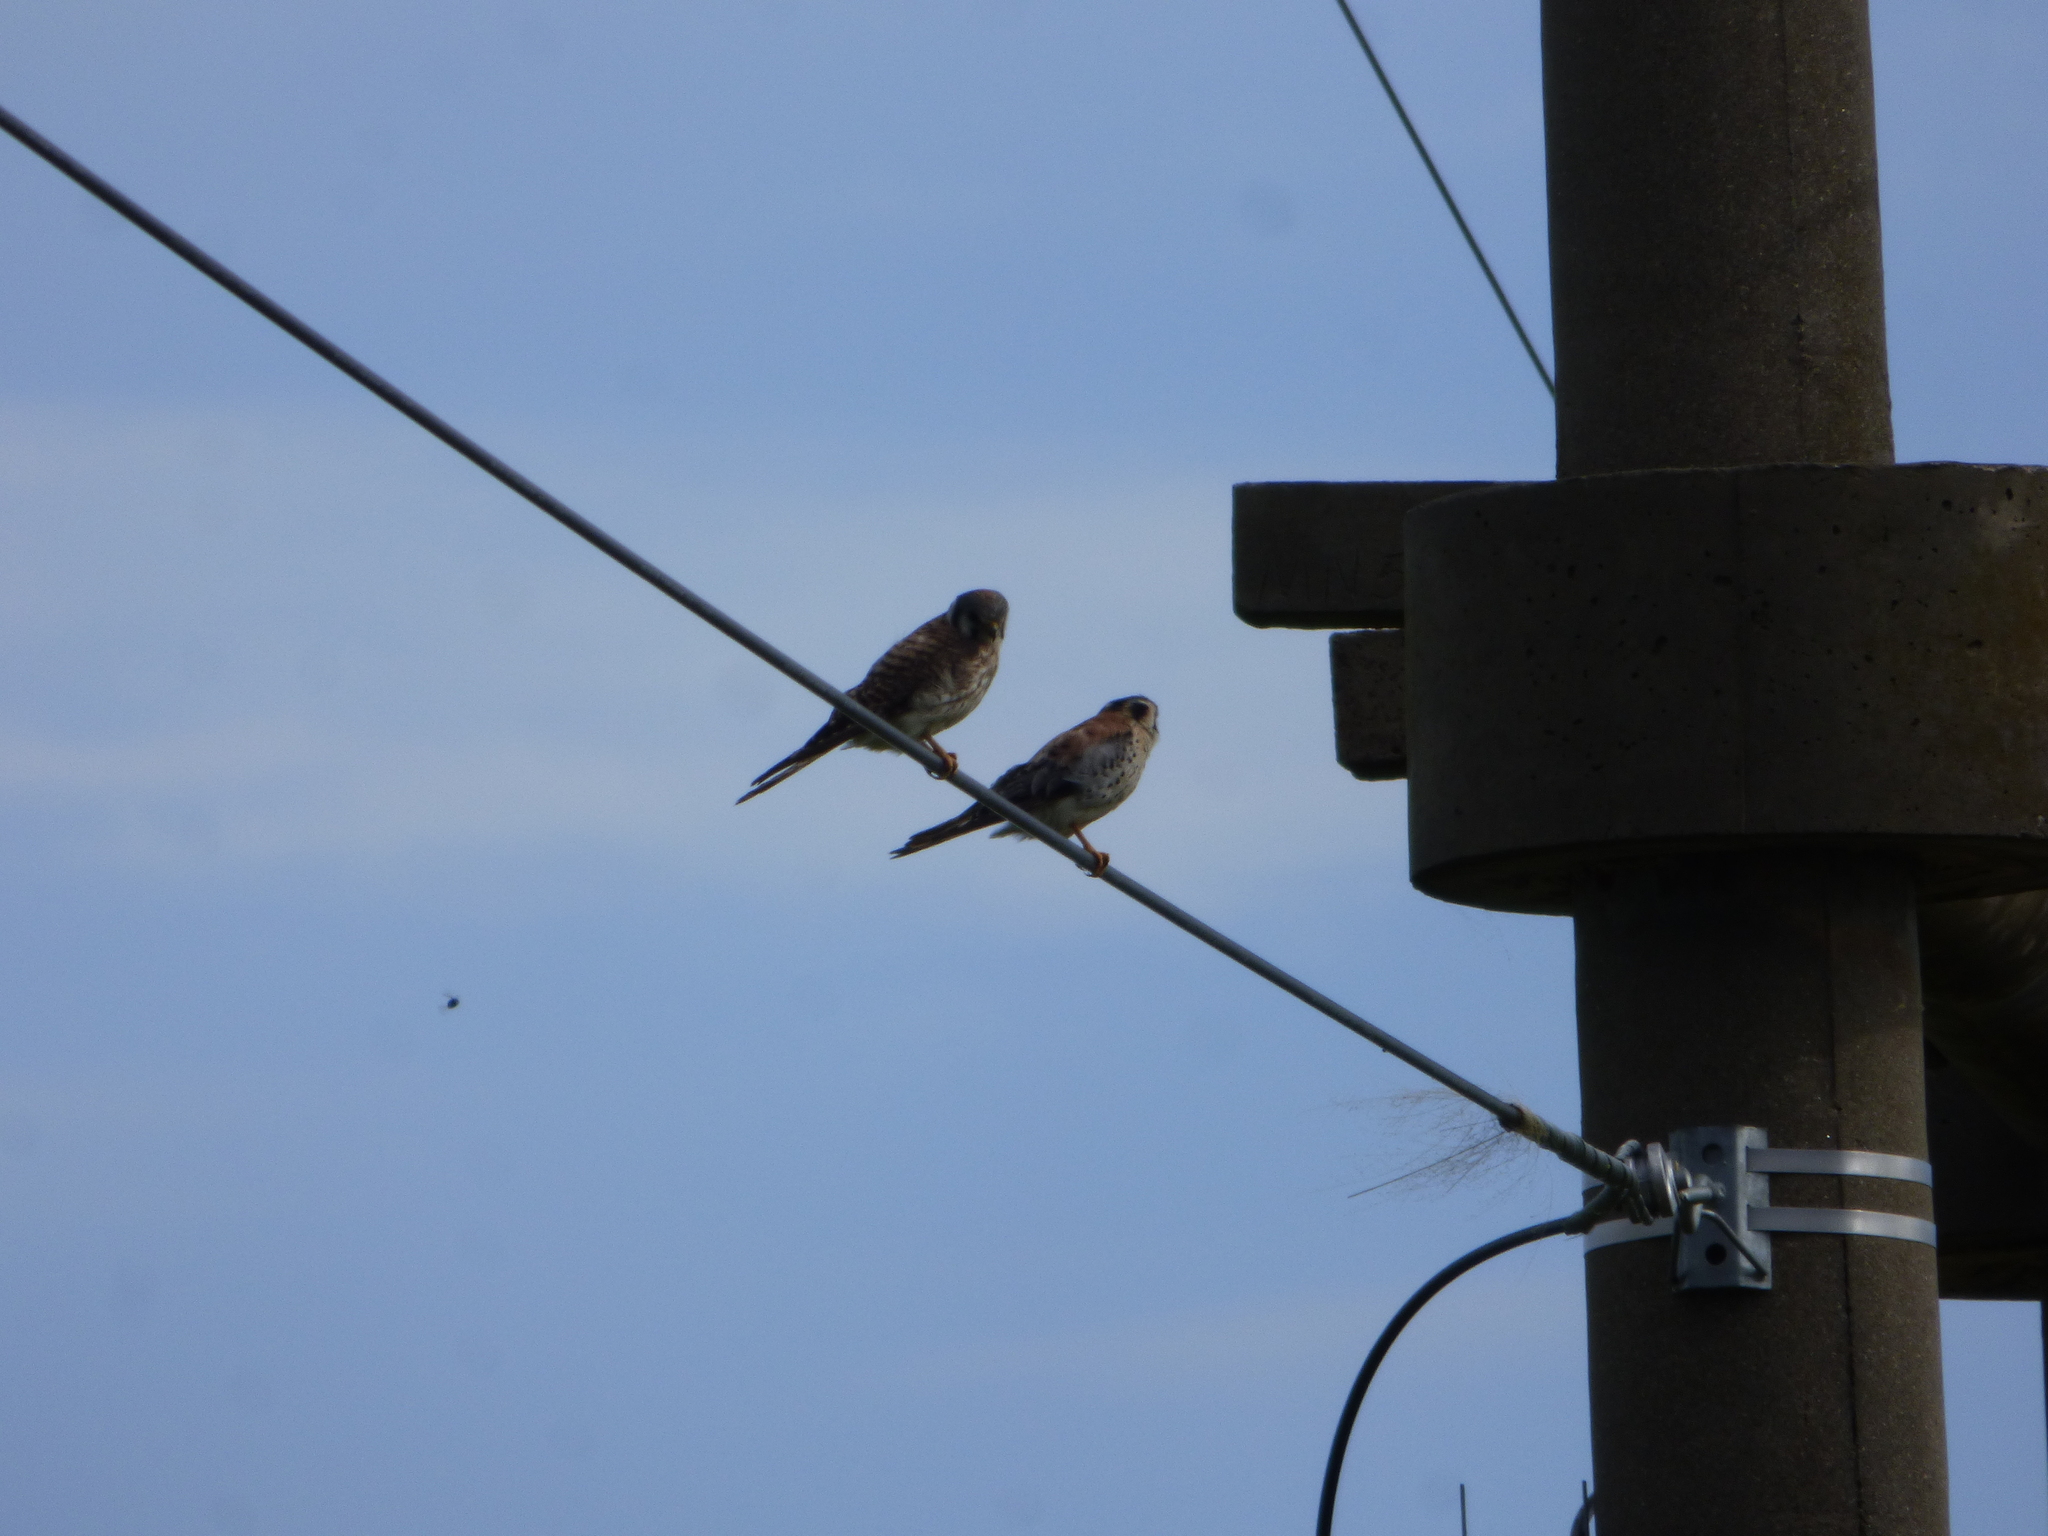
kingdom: Animalia
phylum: Chordata
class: Aves
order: Falconiformes
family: Falconidae
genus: Falco
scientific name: Falco sparverius
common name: American kestrel
